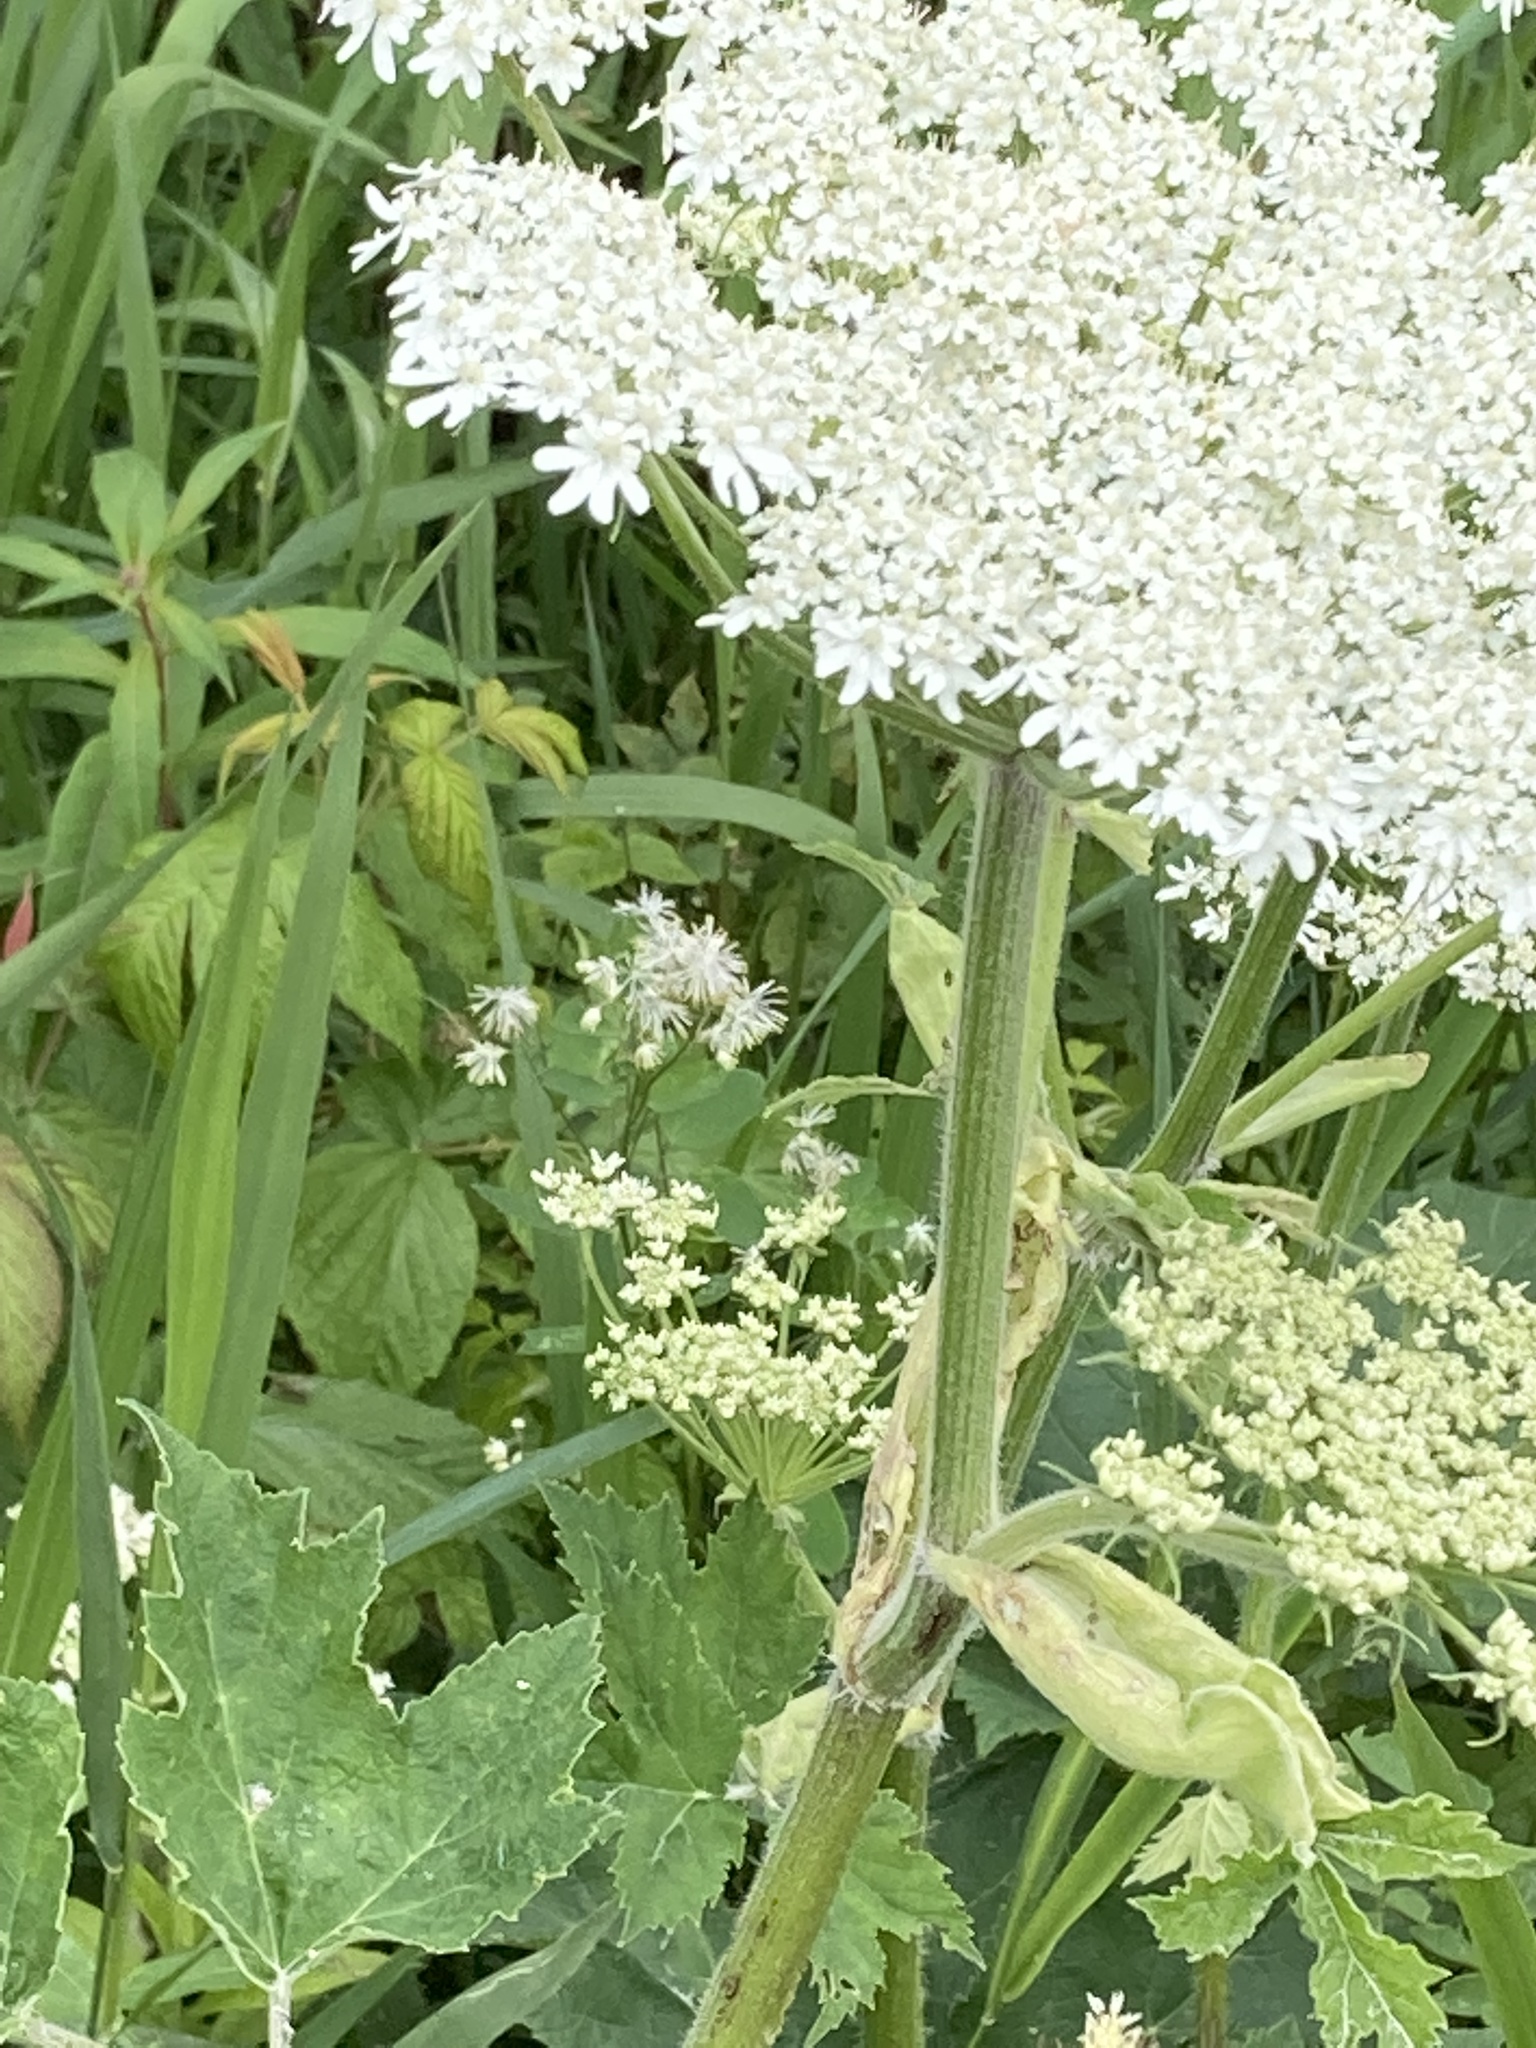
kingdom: Plantae
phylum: Tracheophyta
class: Magnoliopsida
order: Apiales
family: Apiaceae
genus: Heracleum
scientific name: Heracleum maximum
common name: American cow parsnip
